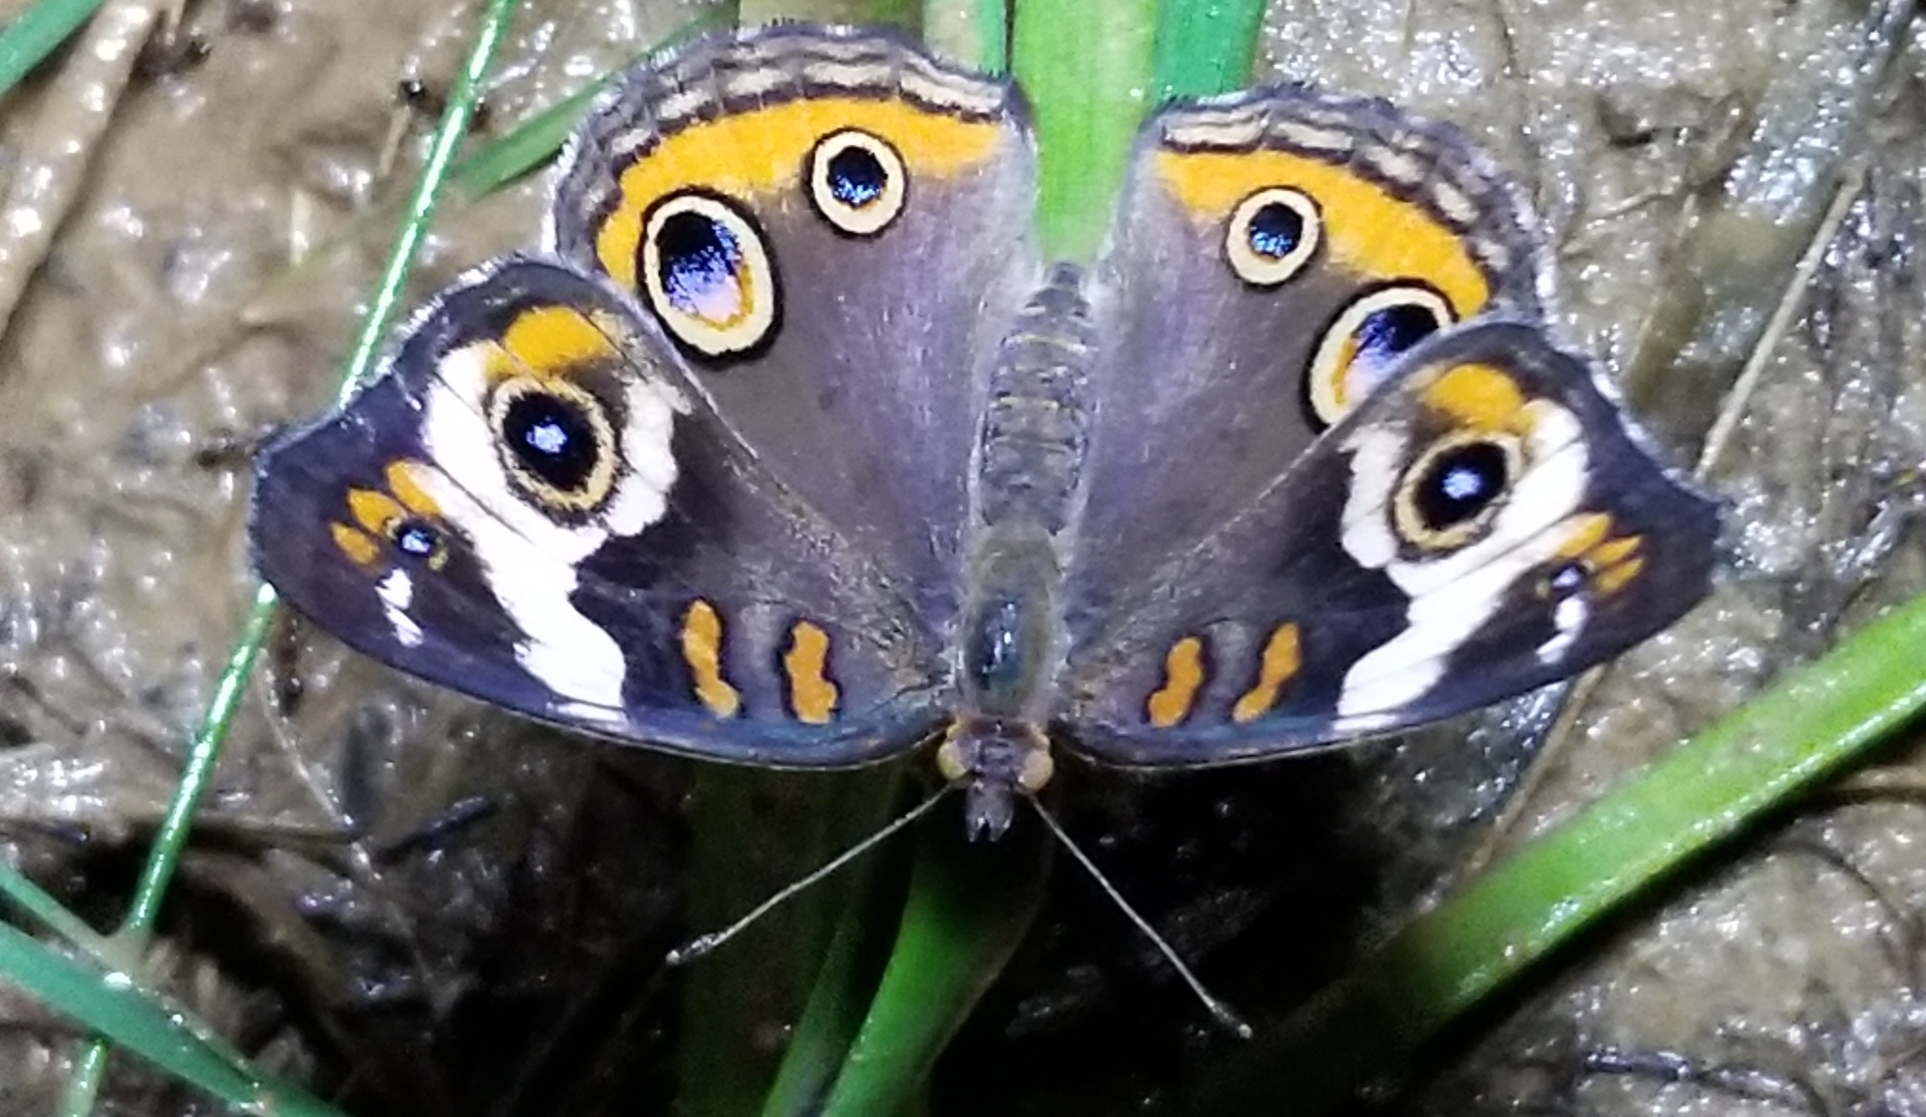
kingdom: Animalia
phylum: Arthropoda
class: Insecta
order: Lepidoptera
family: Nymphalidae
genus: Junonia
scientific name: Junonia coenia
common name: Common buckeye
